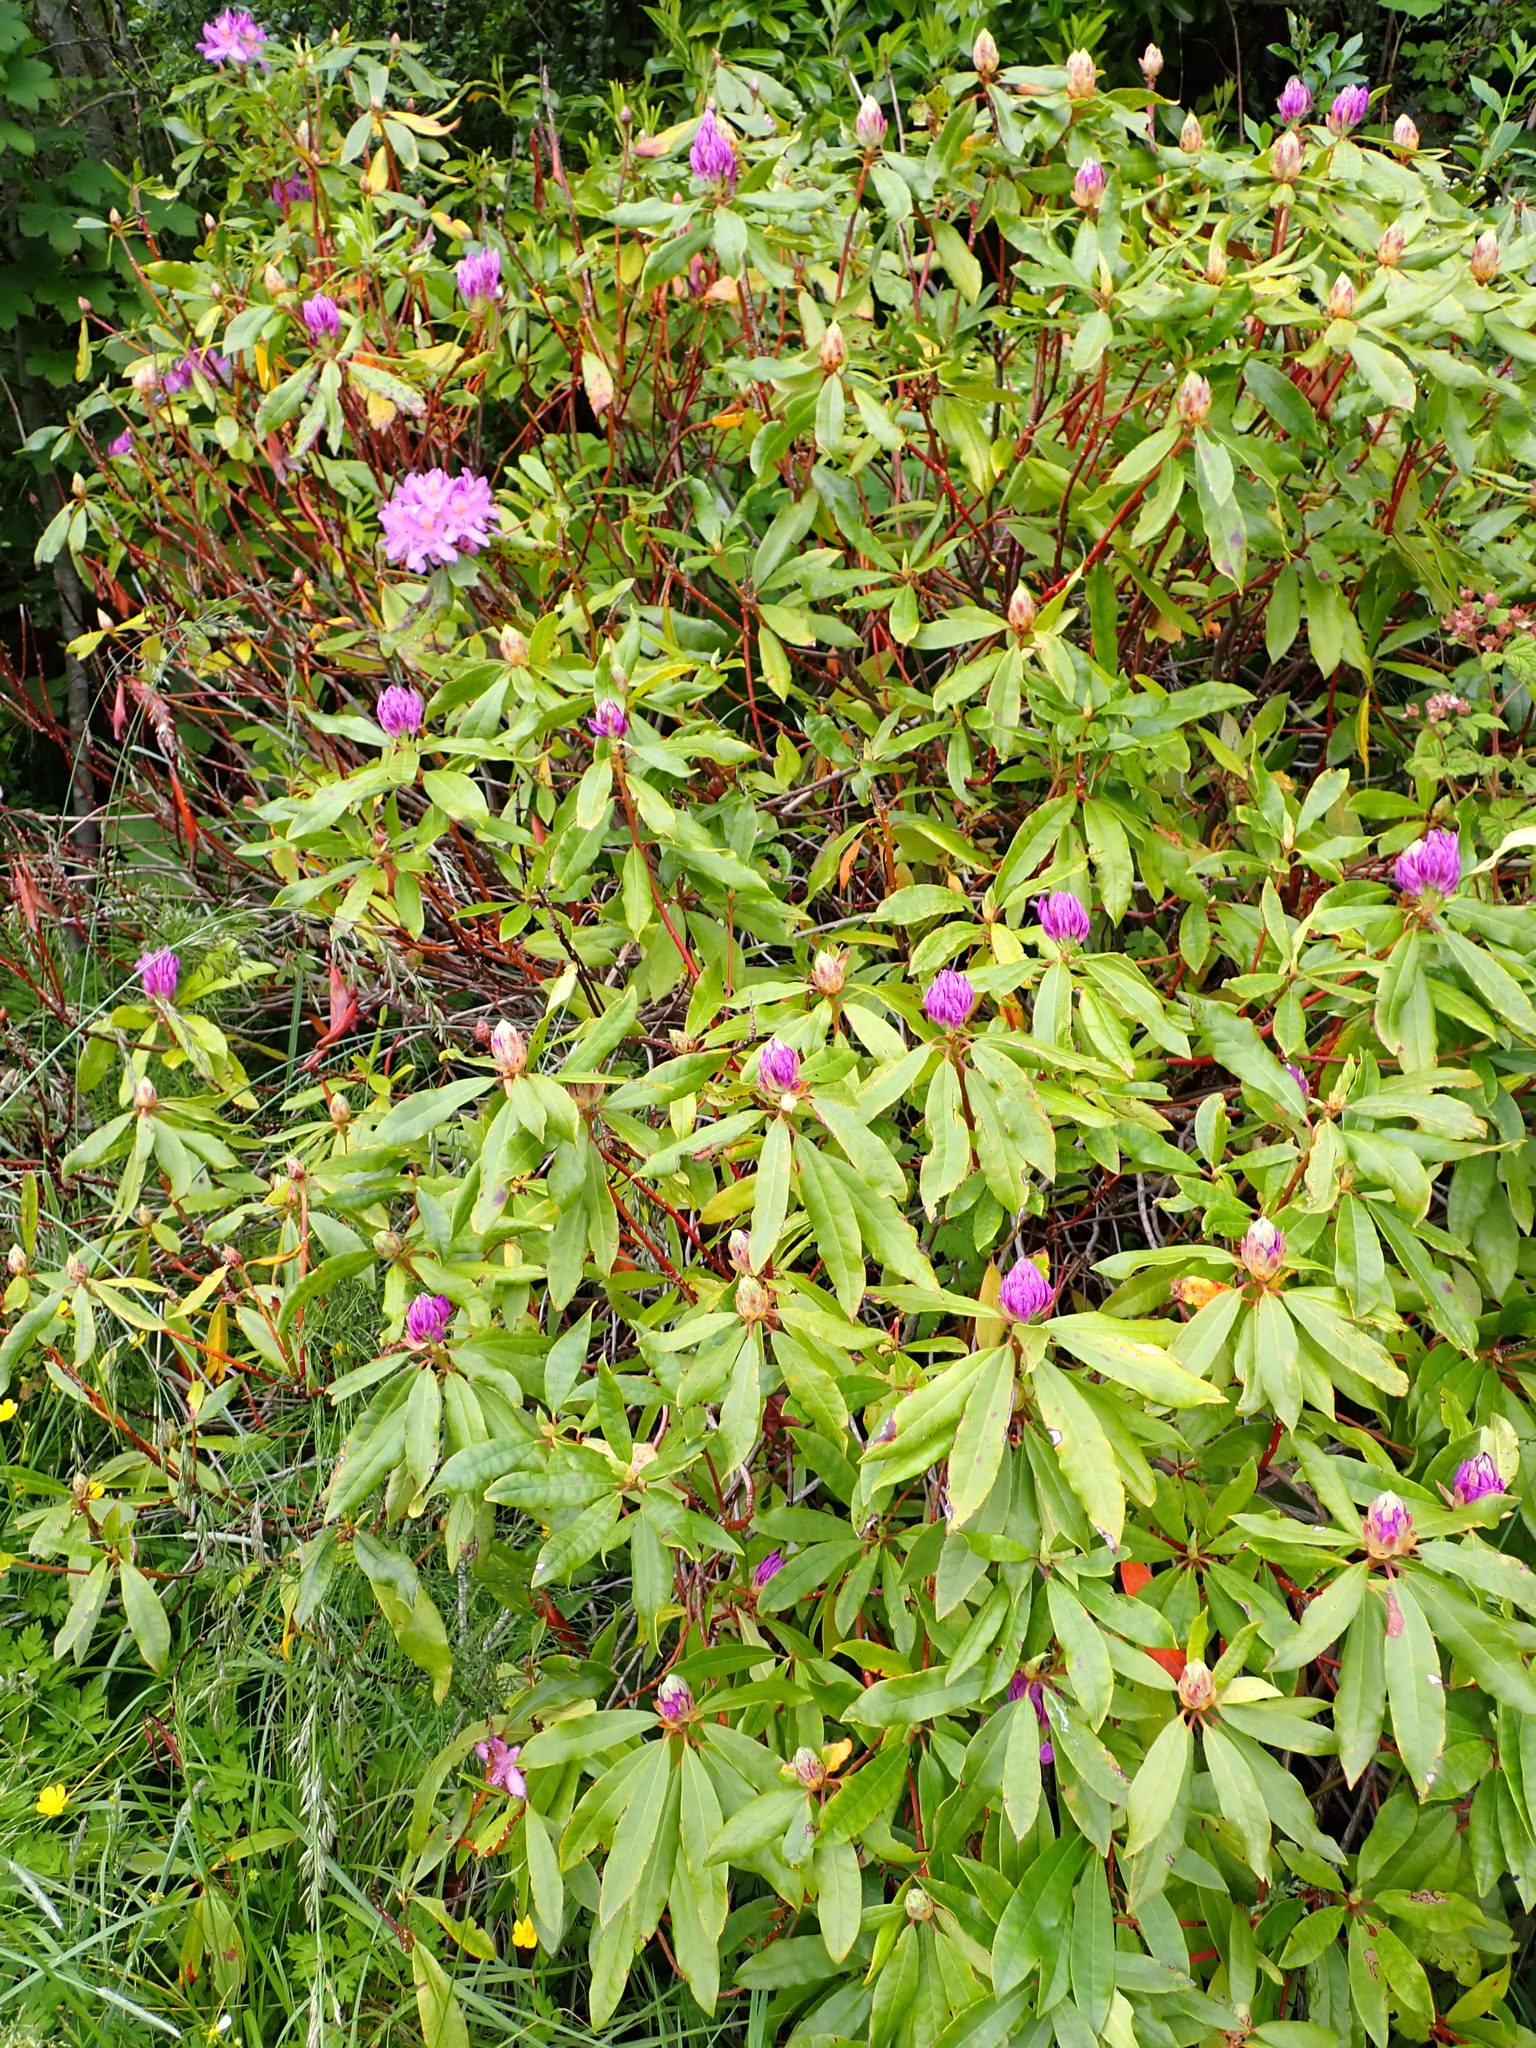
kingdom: Plantae
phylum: Tracheophyta
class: Magnoliopsida
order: Ericales
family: Ericaceae
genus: Rhododendron
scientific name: Rhododendron macrophyllum
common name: California rose bay
